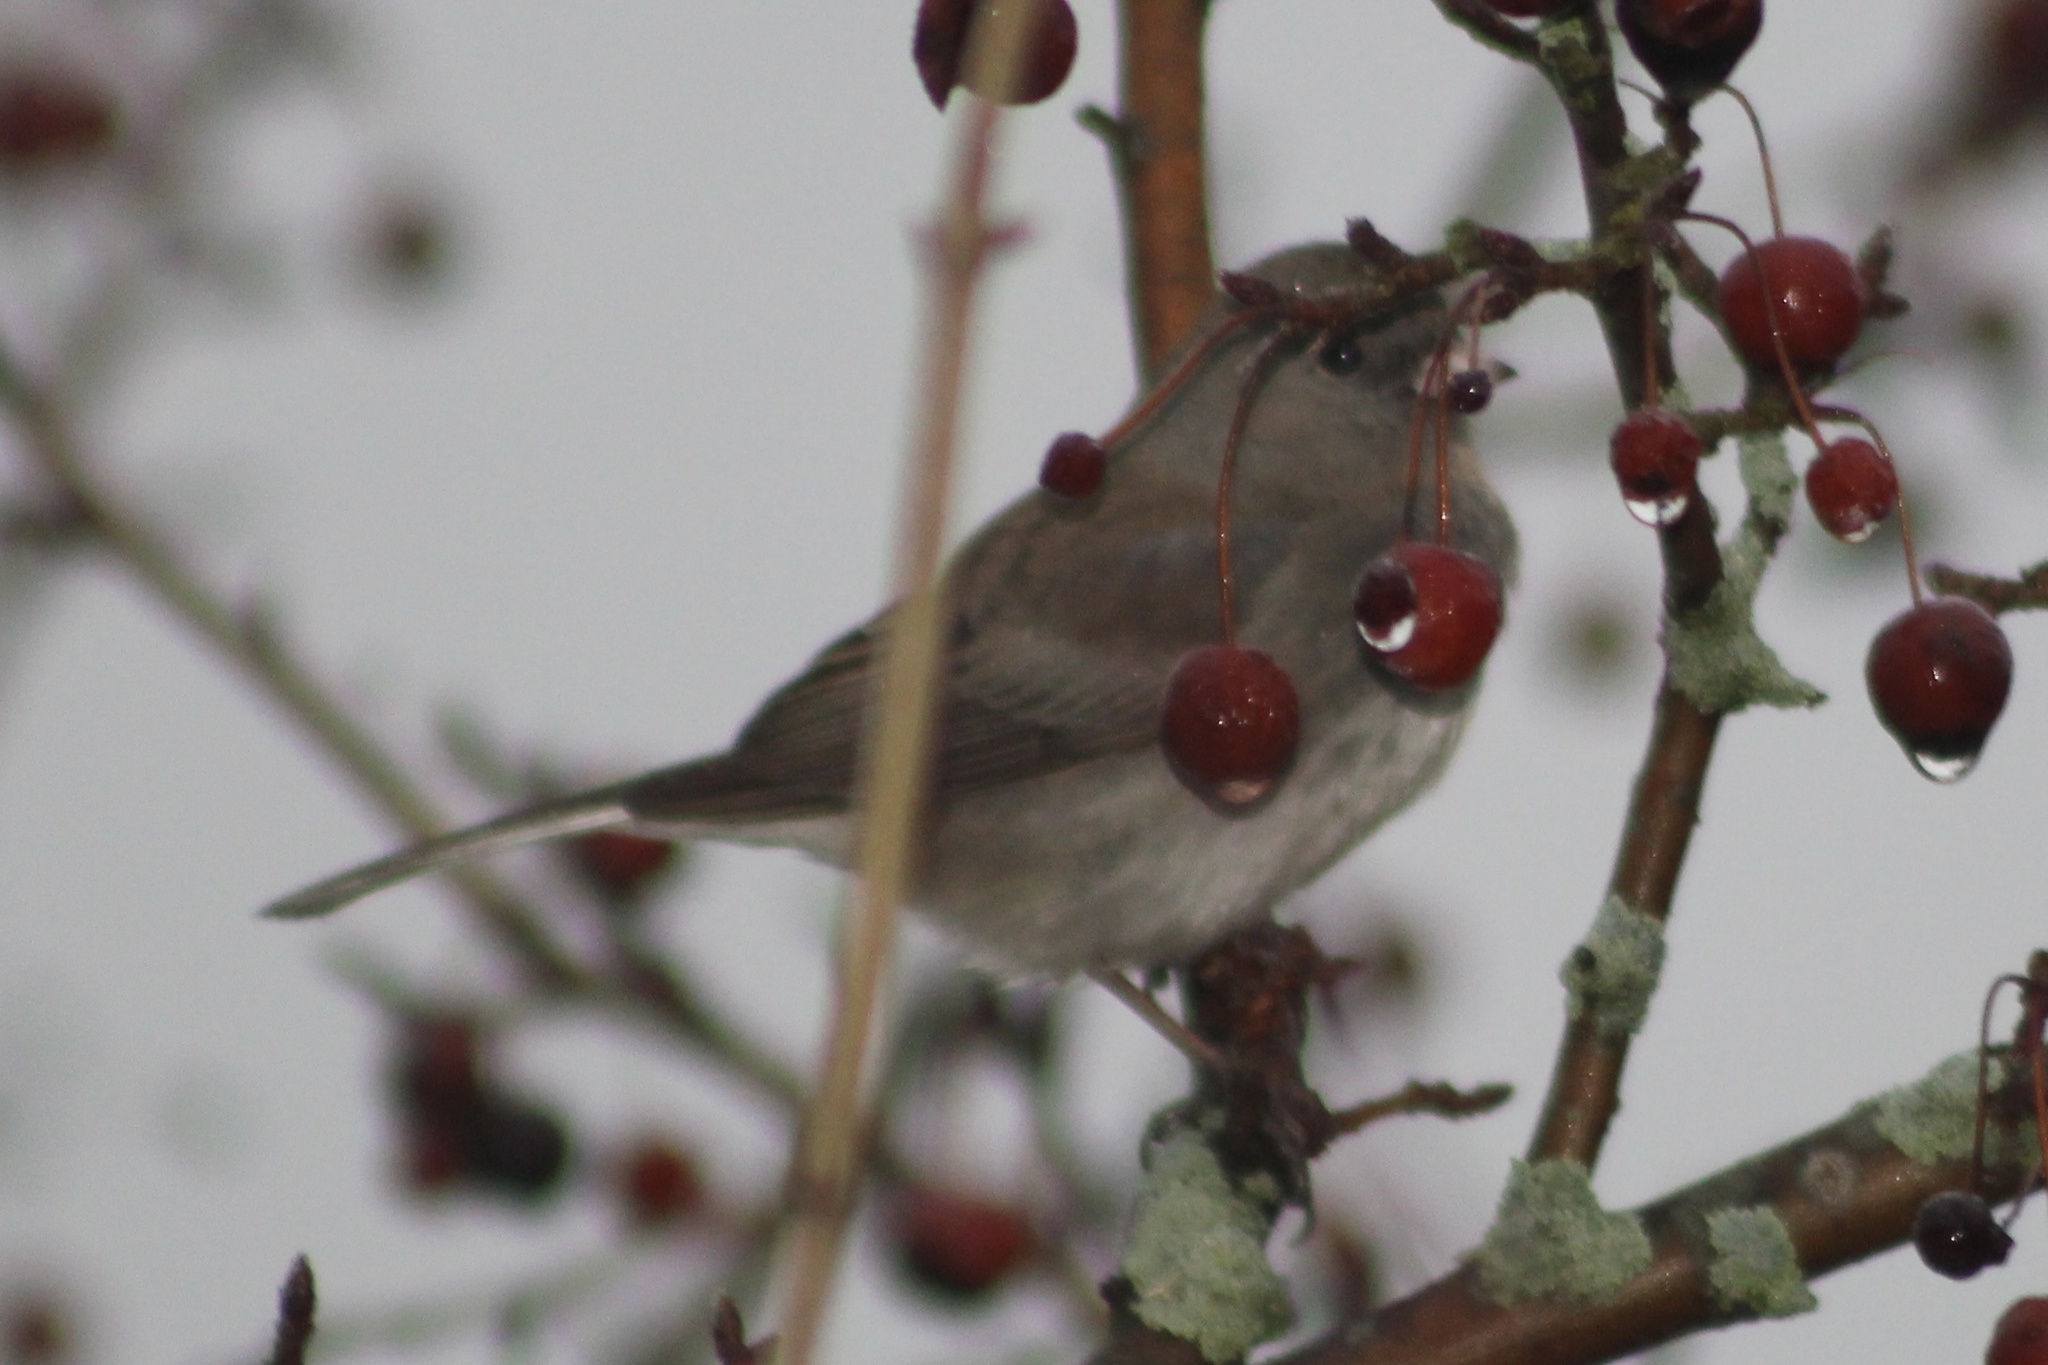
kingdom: Animalia
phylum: Chordata
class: Aves
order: Passeriformes
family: Passerellidae
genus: Junco
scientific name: Junco hyemalis
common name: Dark-eyed junco
